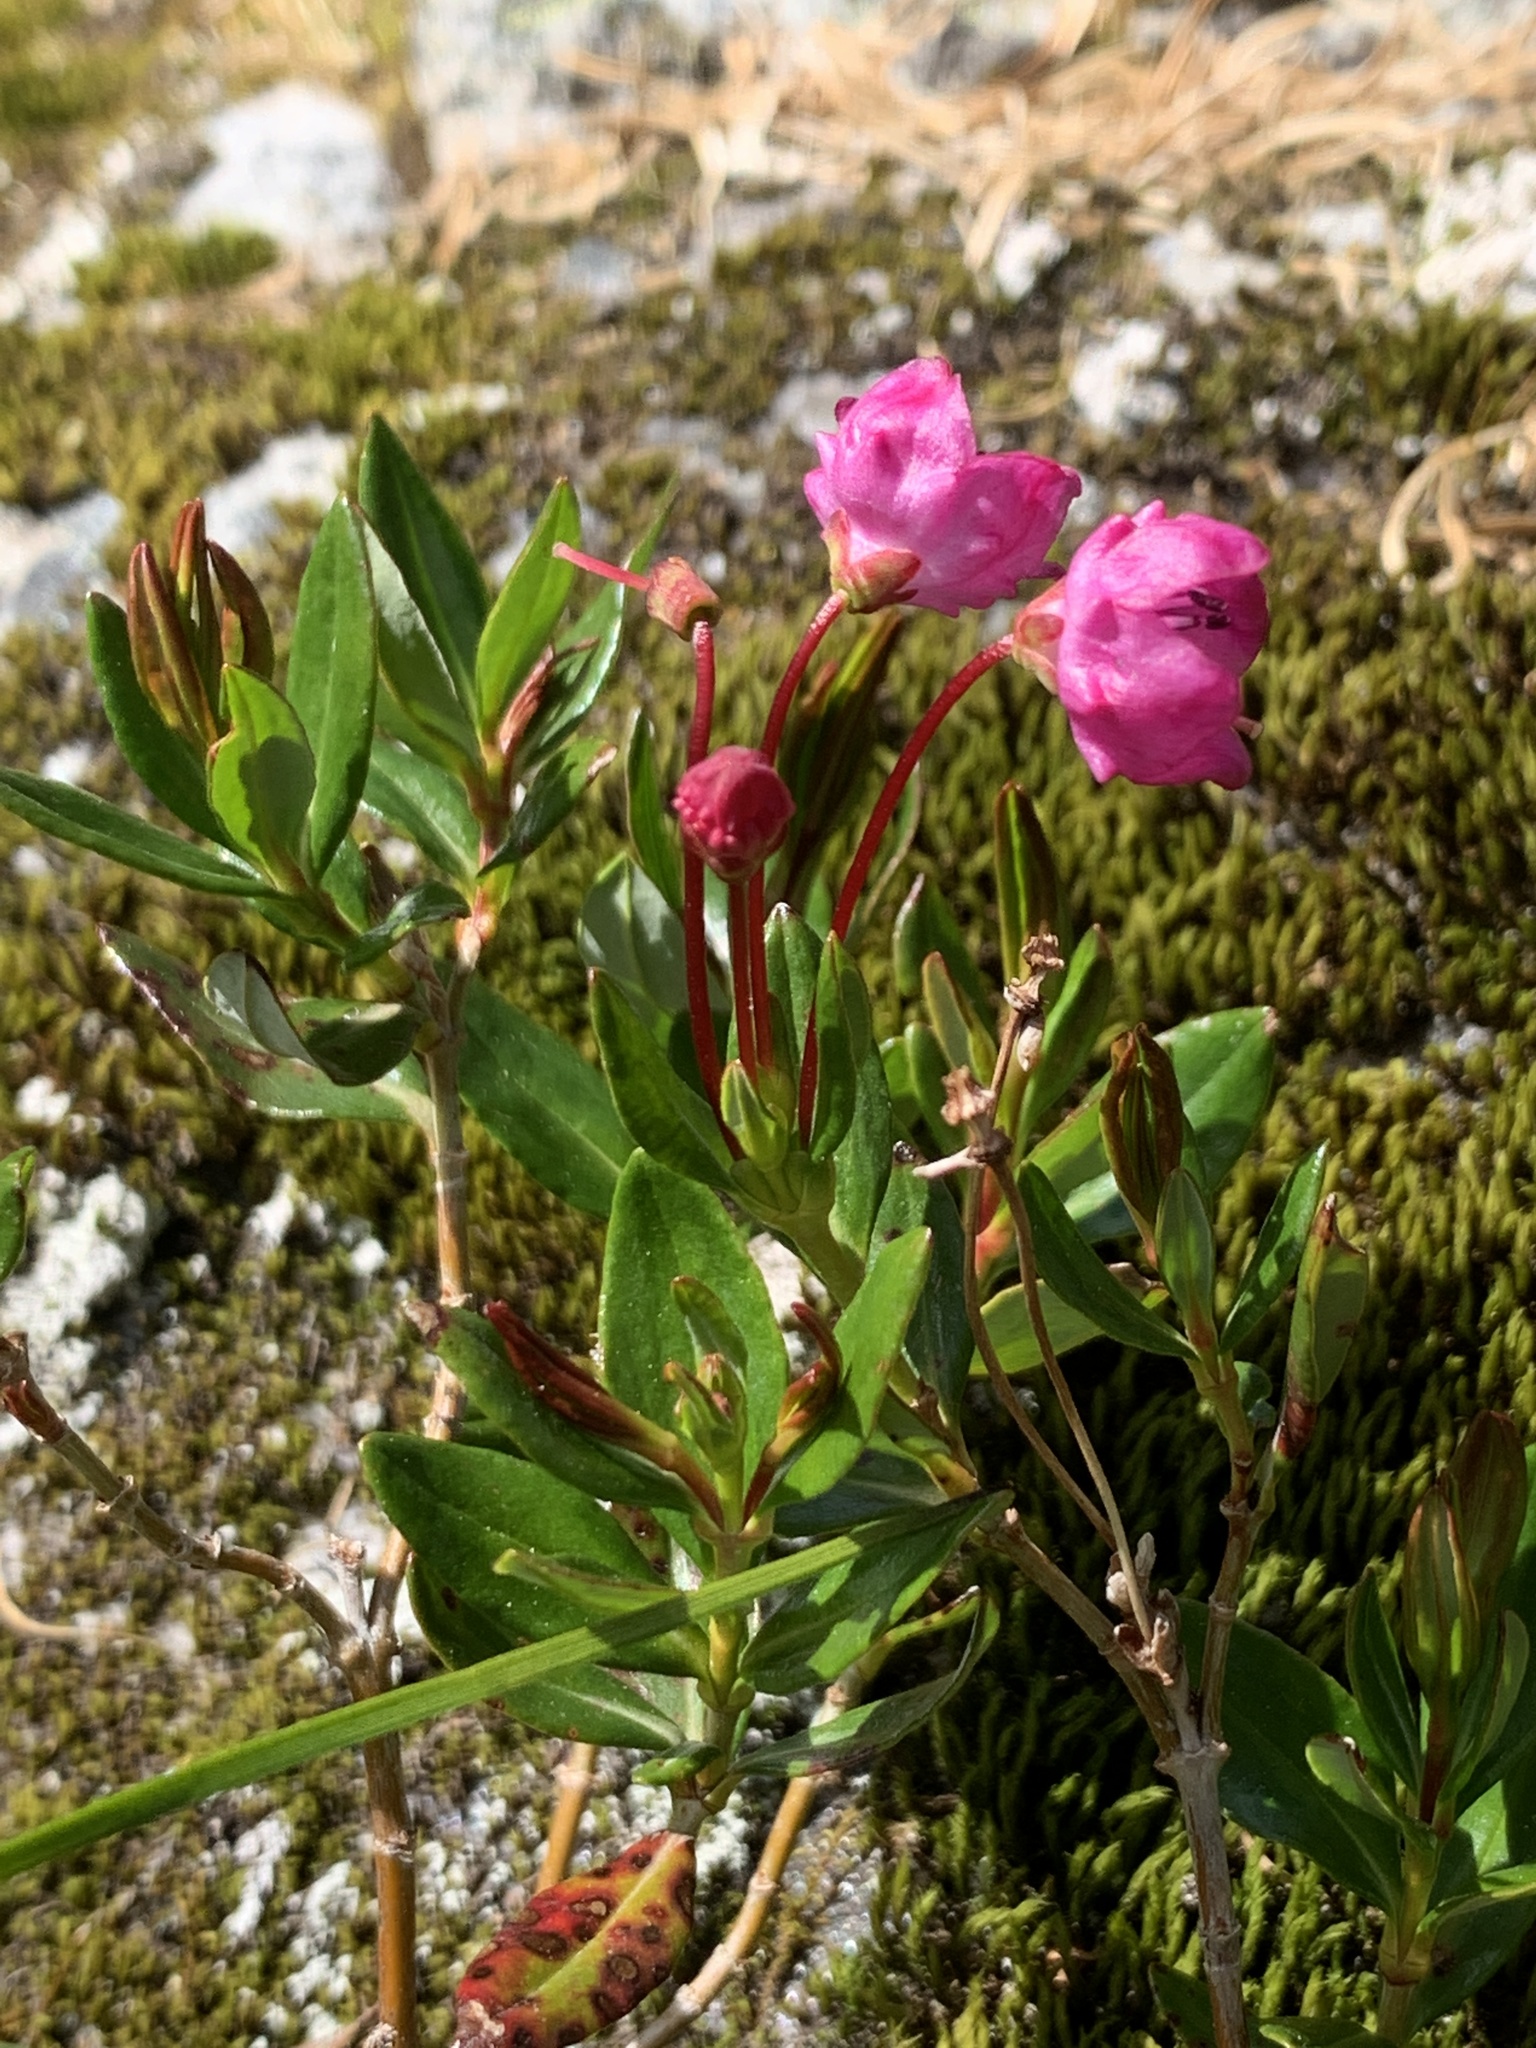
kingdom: Plantae
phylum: Tracheophyta
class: Magnoliopsida
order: Ericales
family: Ericaceae
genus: Kalmia
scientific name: Kalmia microphylla
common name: Alpine bog laurel
